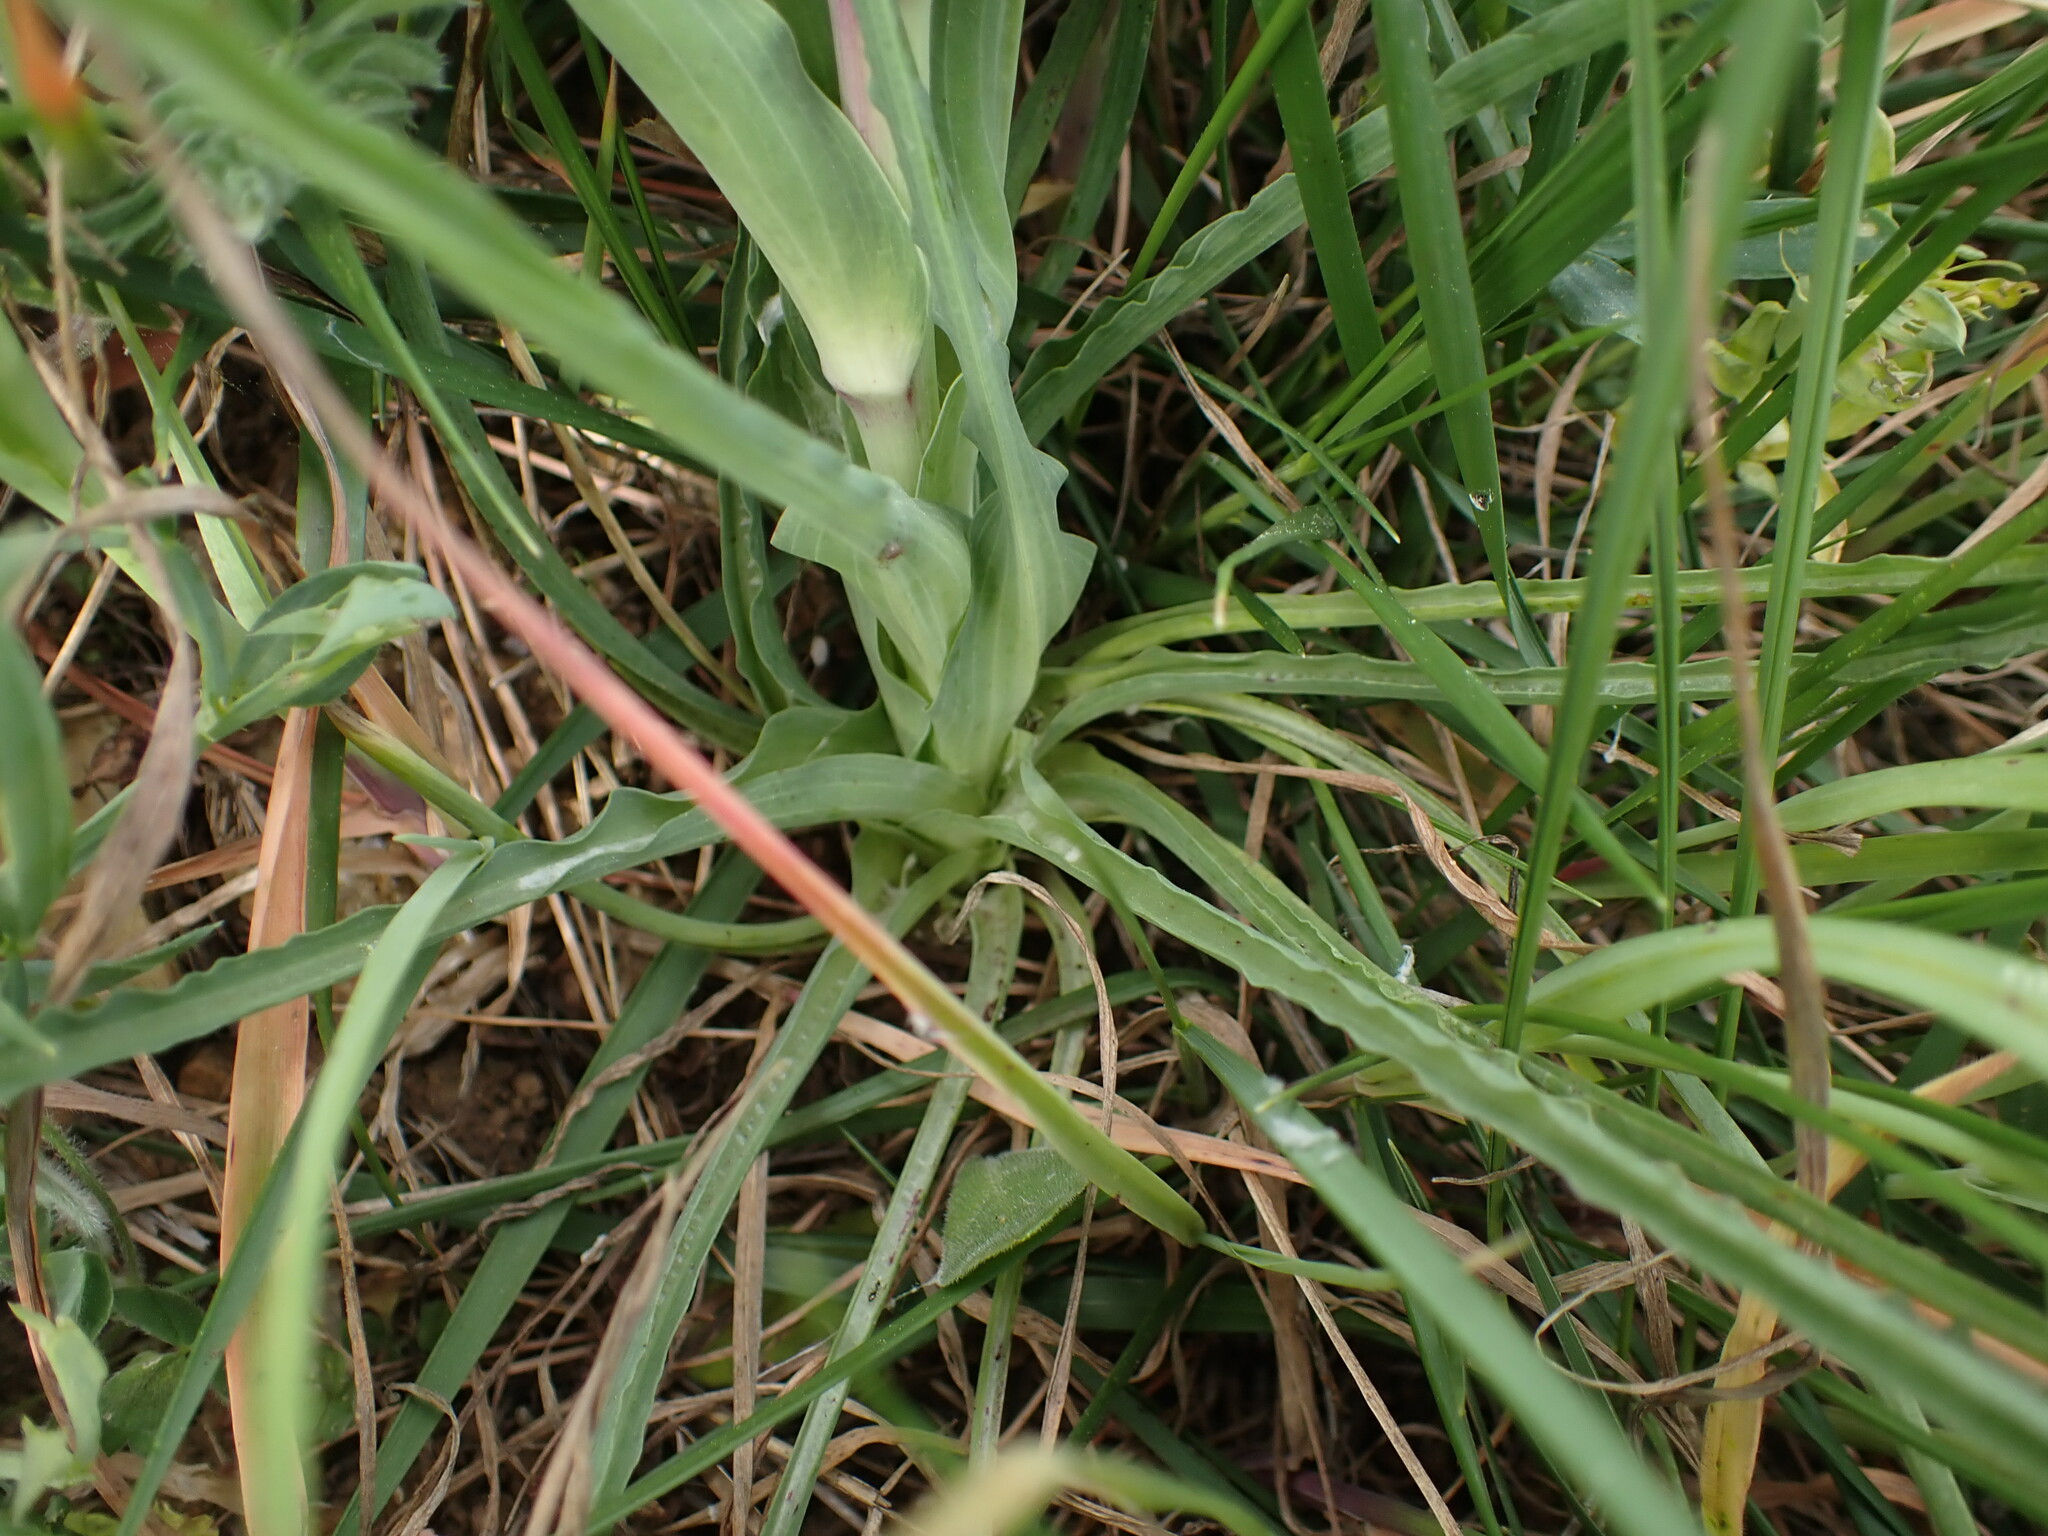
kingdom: Plantae
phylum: Tracheophyta
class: Magnoliopsida
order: Asterales
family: Asteraceae
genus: Tragopogon
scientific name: Tragopogon porrifolius
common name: Salsify
